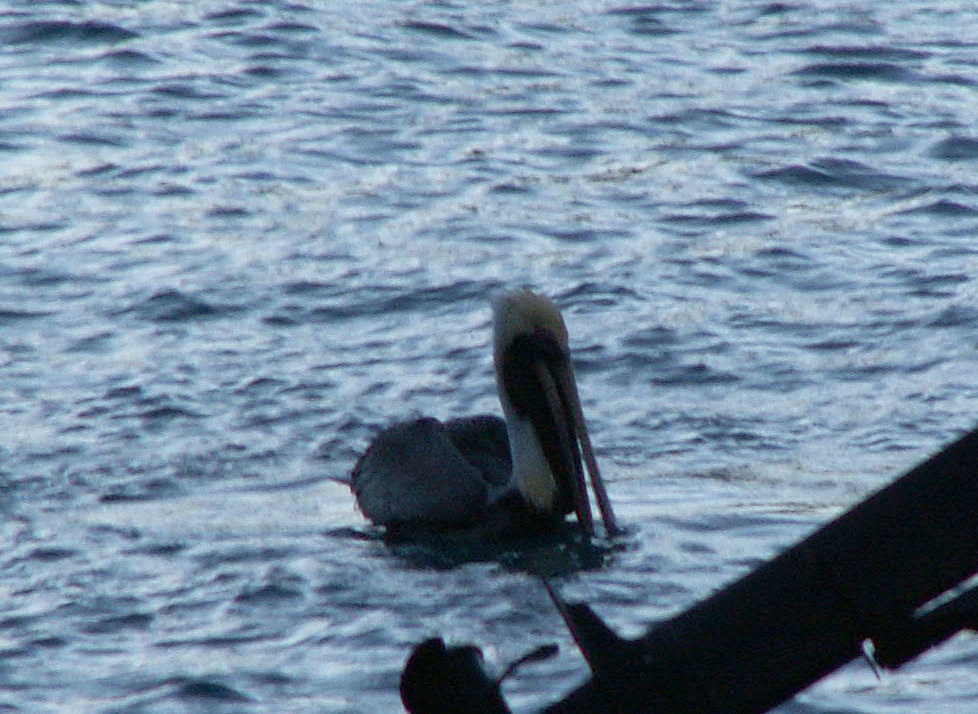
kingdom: Animalia
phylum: Chordata
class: Aves
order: Pelecaniformes
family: Pelecanidae
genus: Pelecanus
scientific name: Pelecanus occidentalis
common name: Brown pelican
